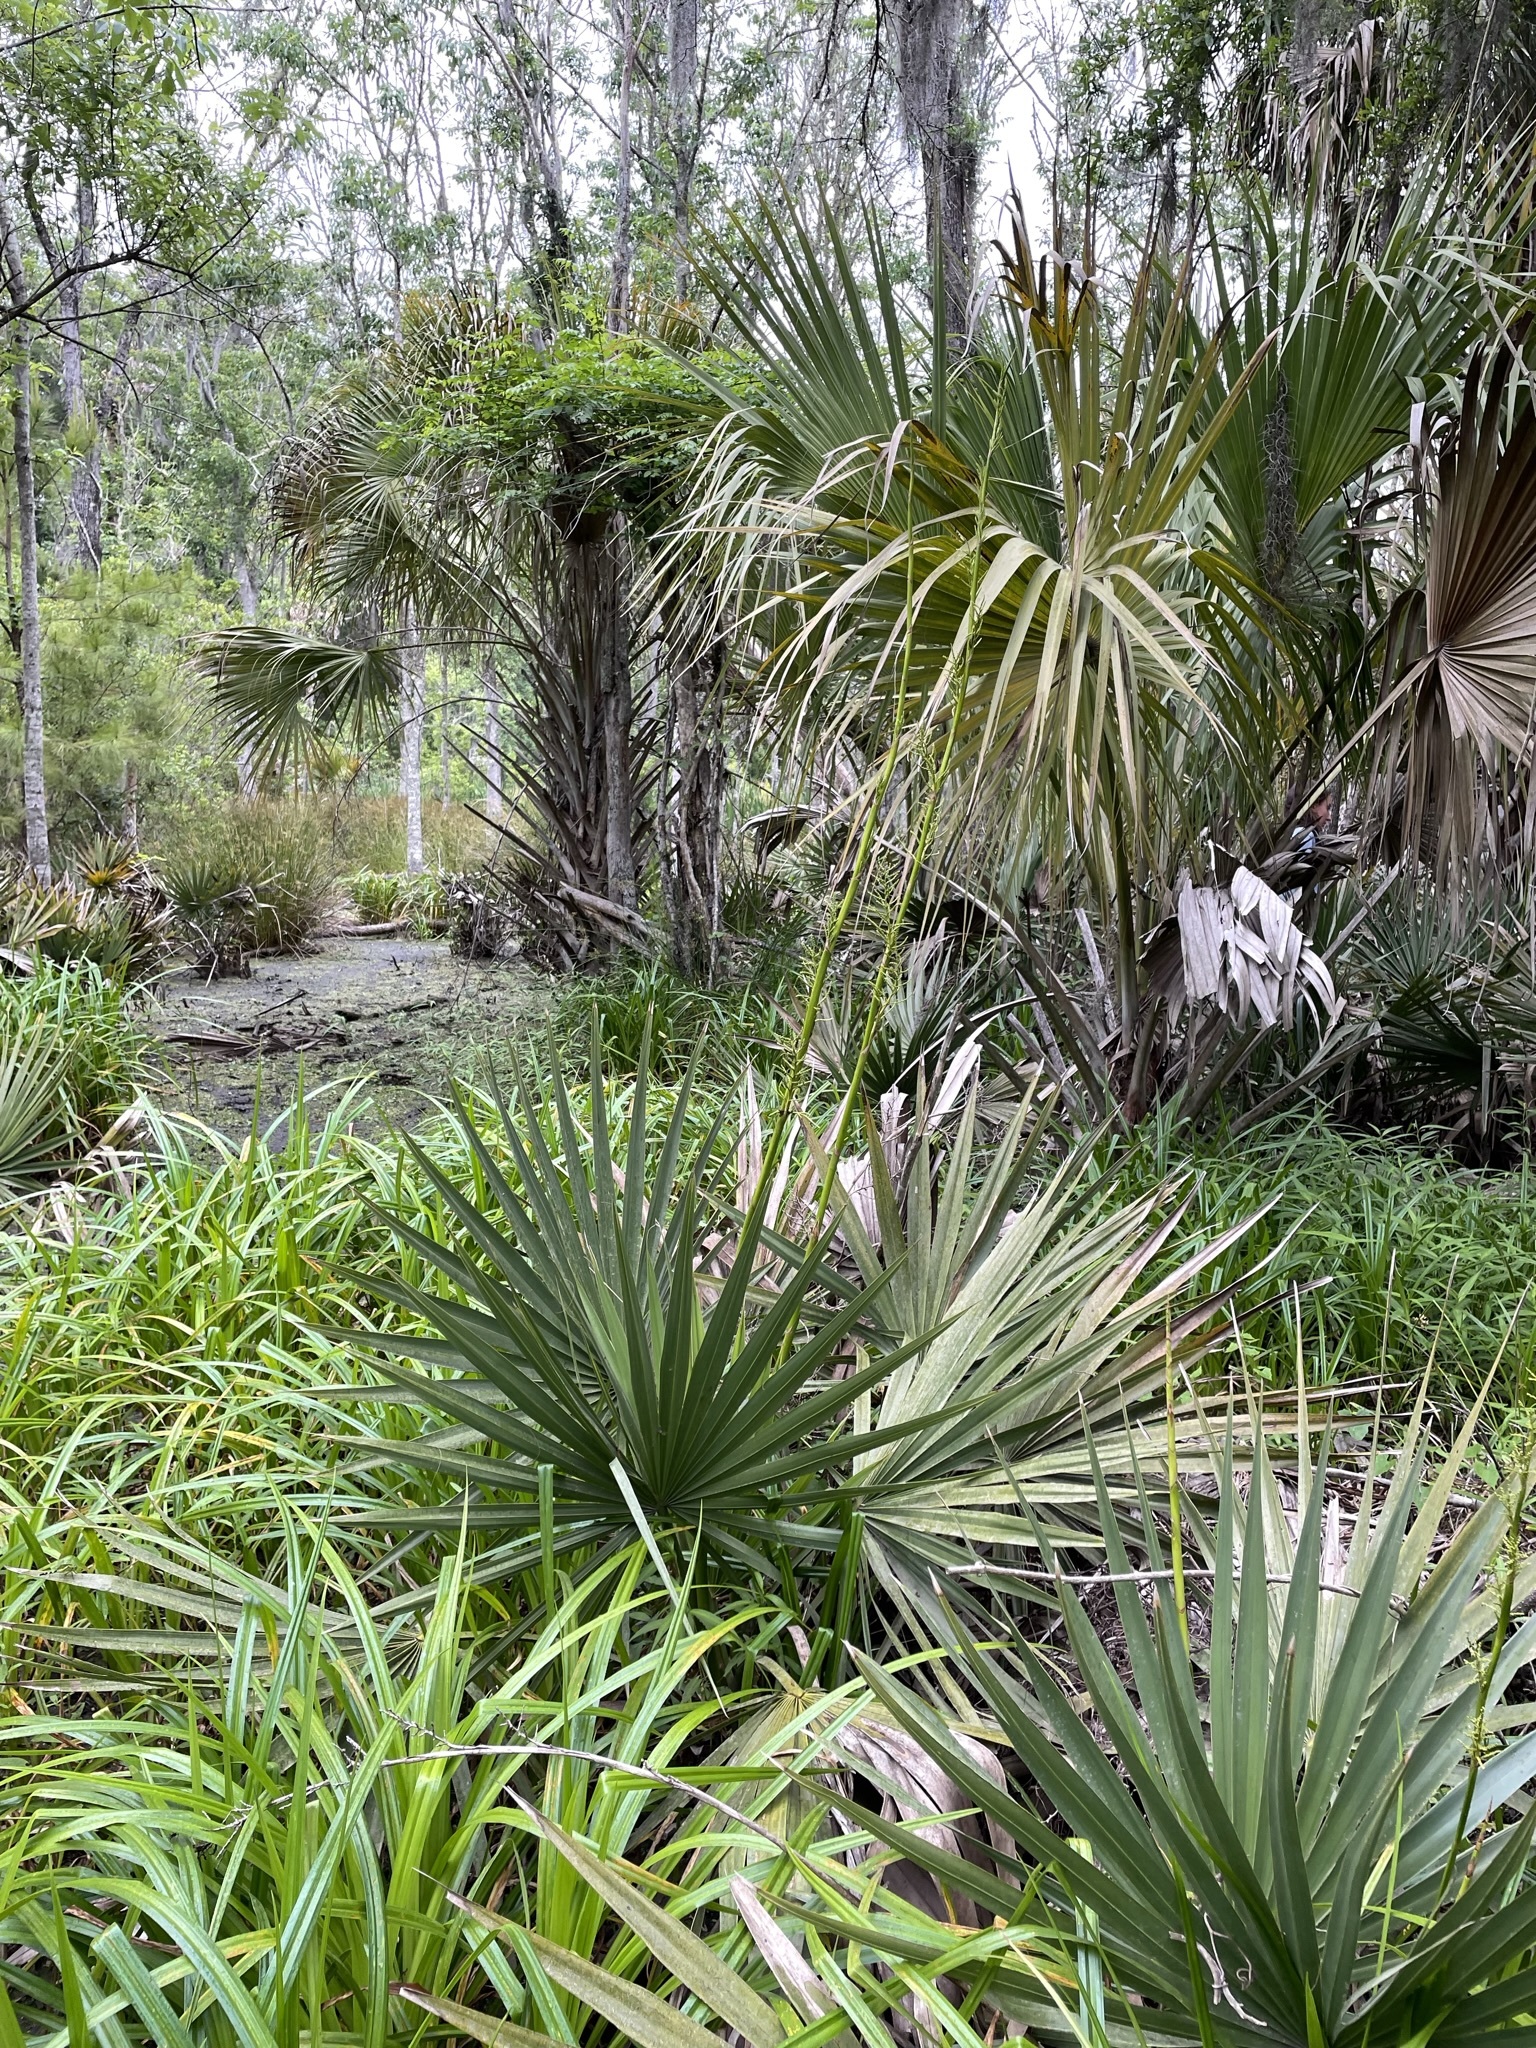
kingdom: Plantae
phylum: Tracheophyta
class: Liliopsida
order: Arecales
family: Arecaceae
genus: Sabal
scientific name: Sabal minor
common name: Dwarf palmetto
